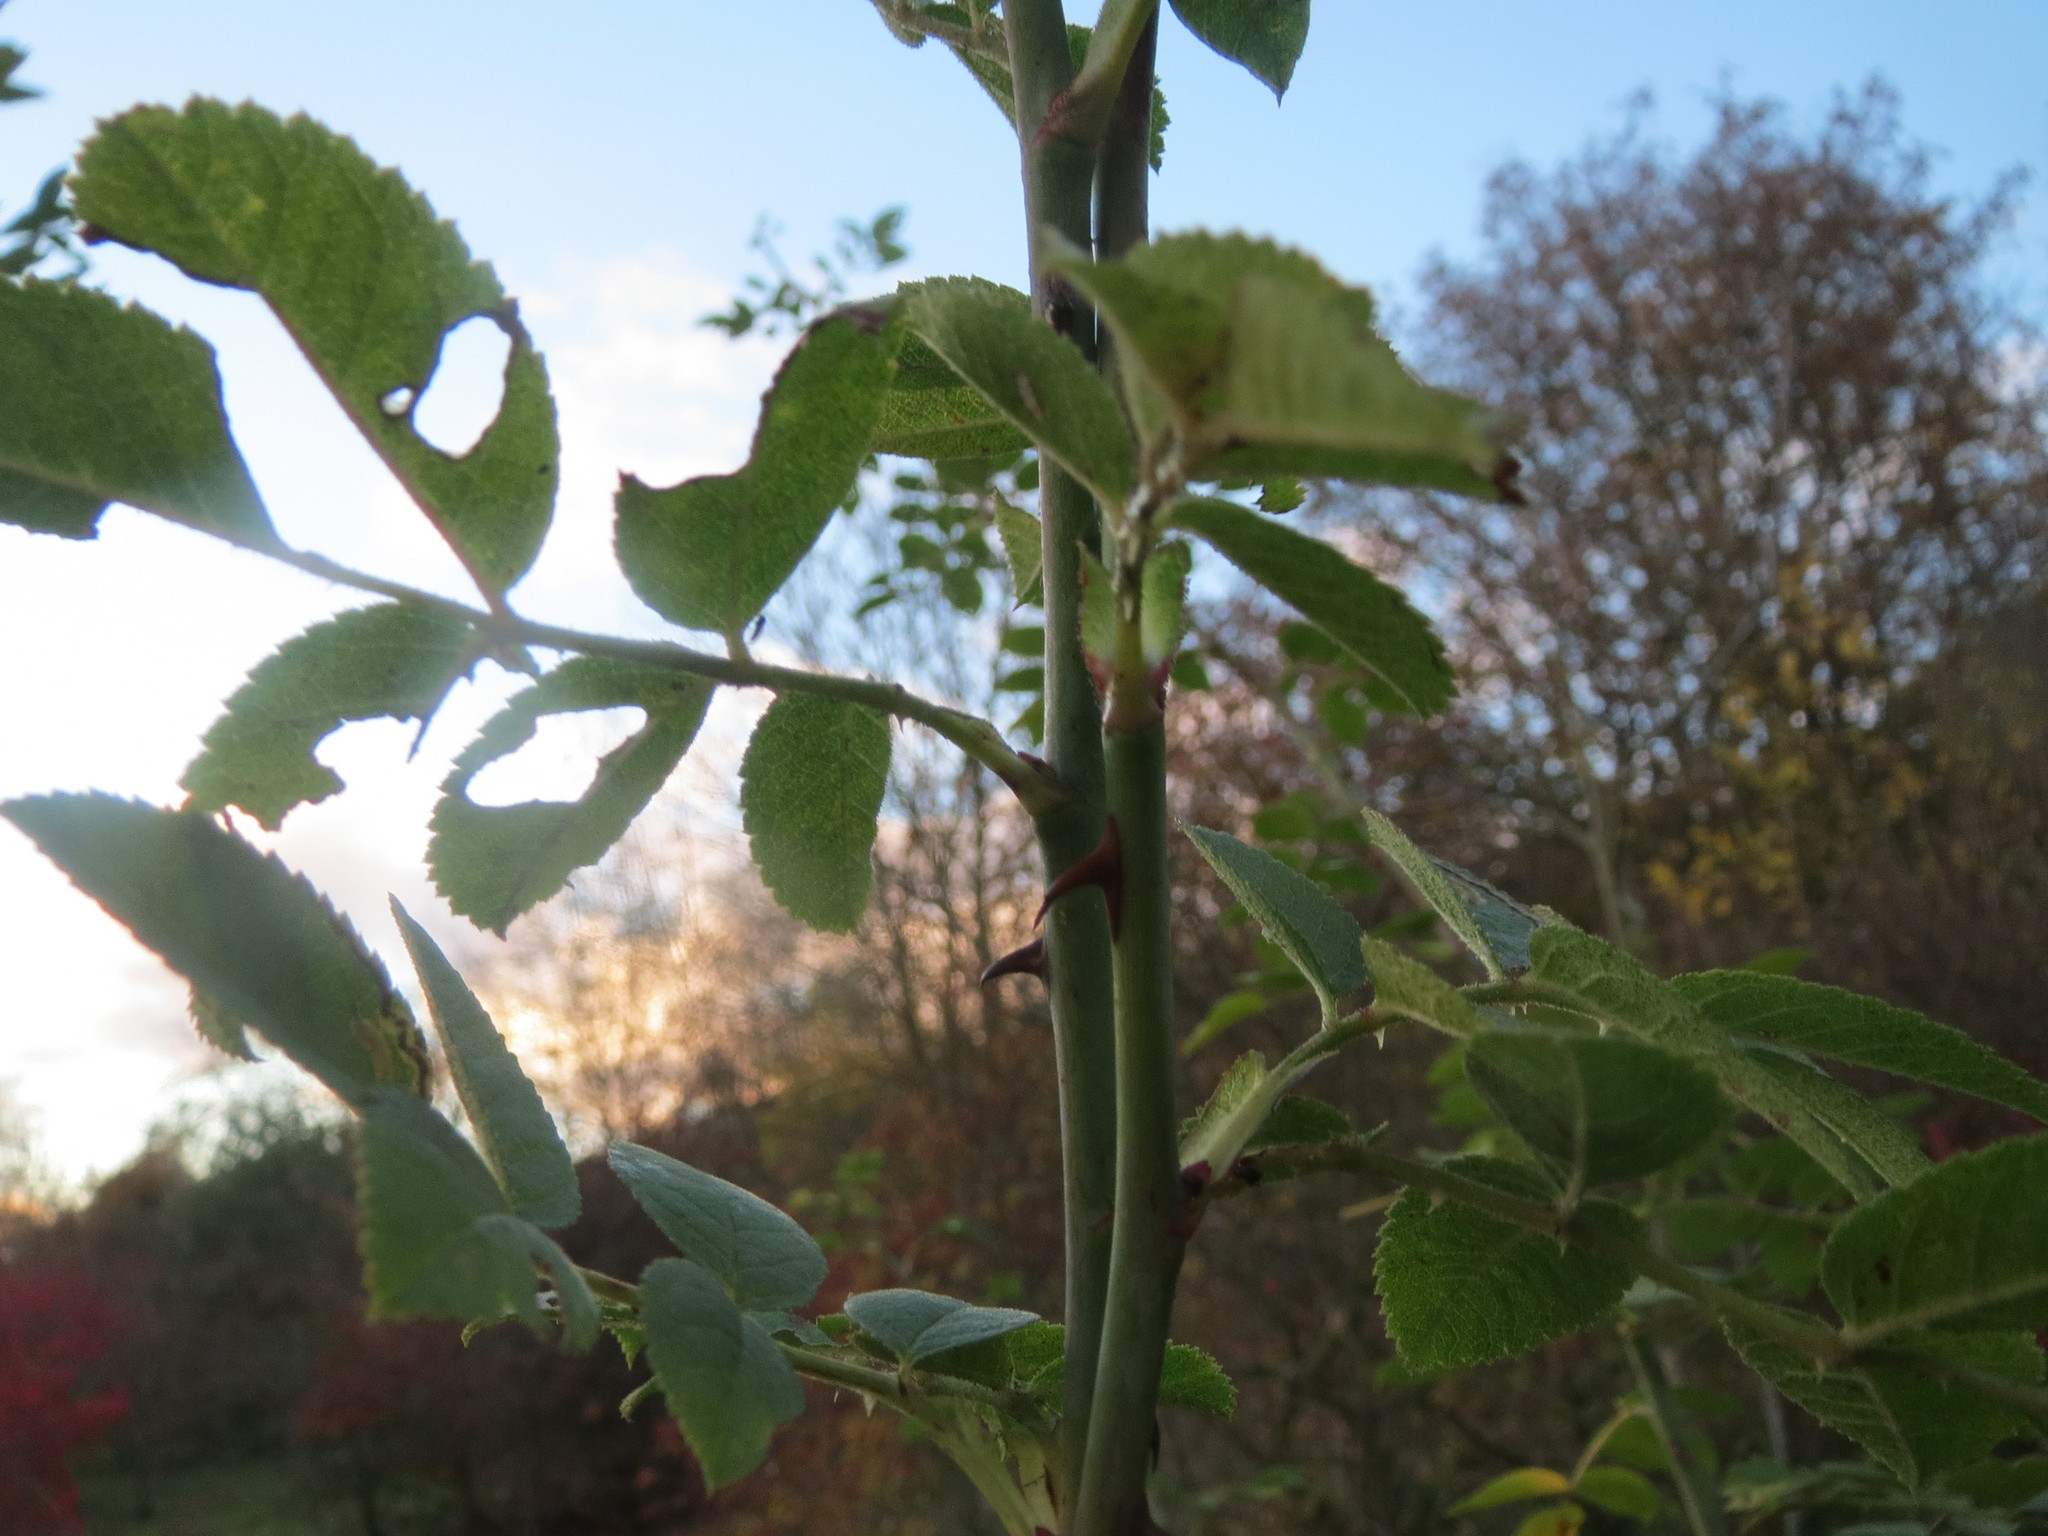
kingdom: Plantae
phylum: Tracheophyta
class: Magnoliopsida
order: Rosales
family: Rosaceae
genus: Rosa
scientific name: Rosa canina
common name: Dog rose
